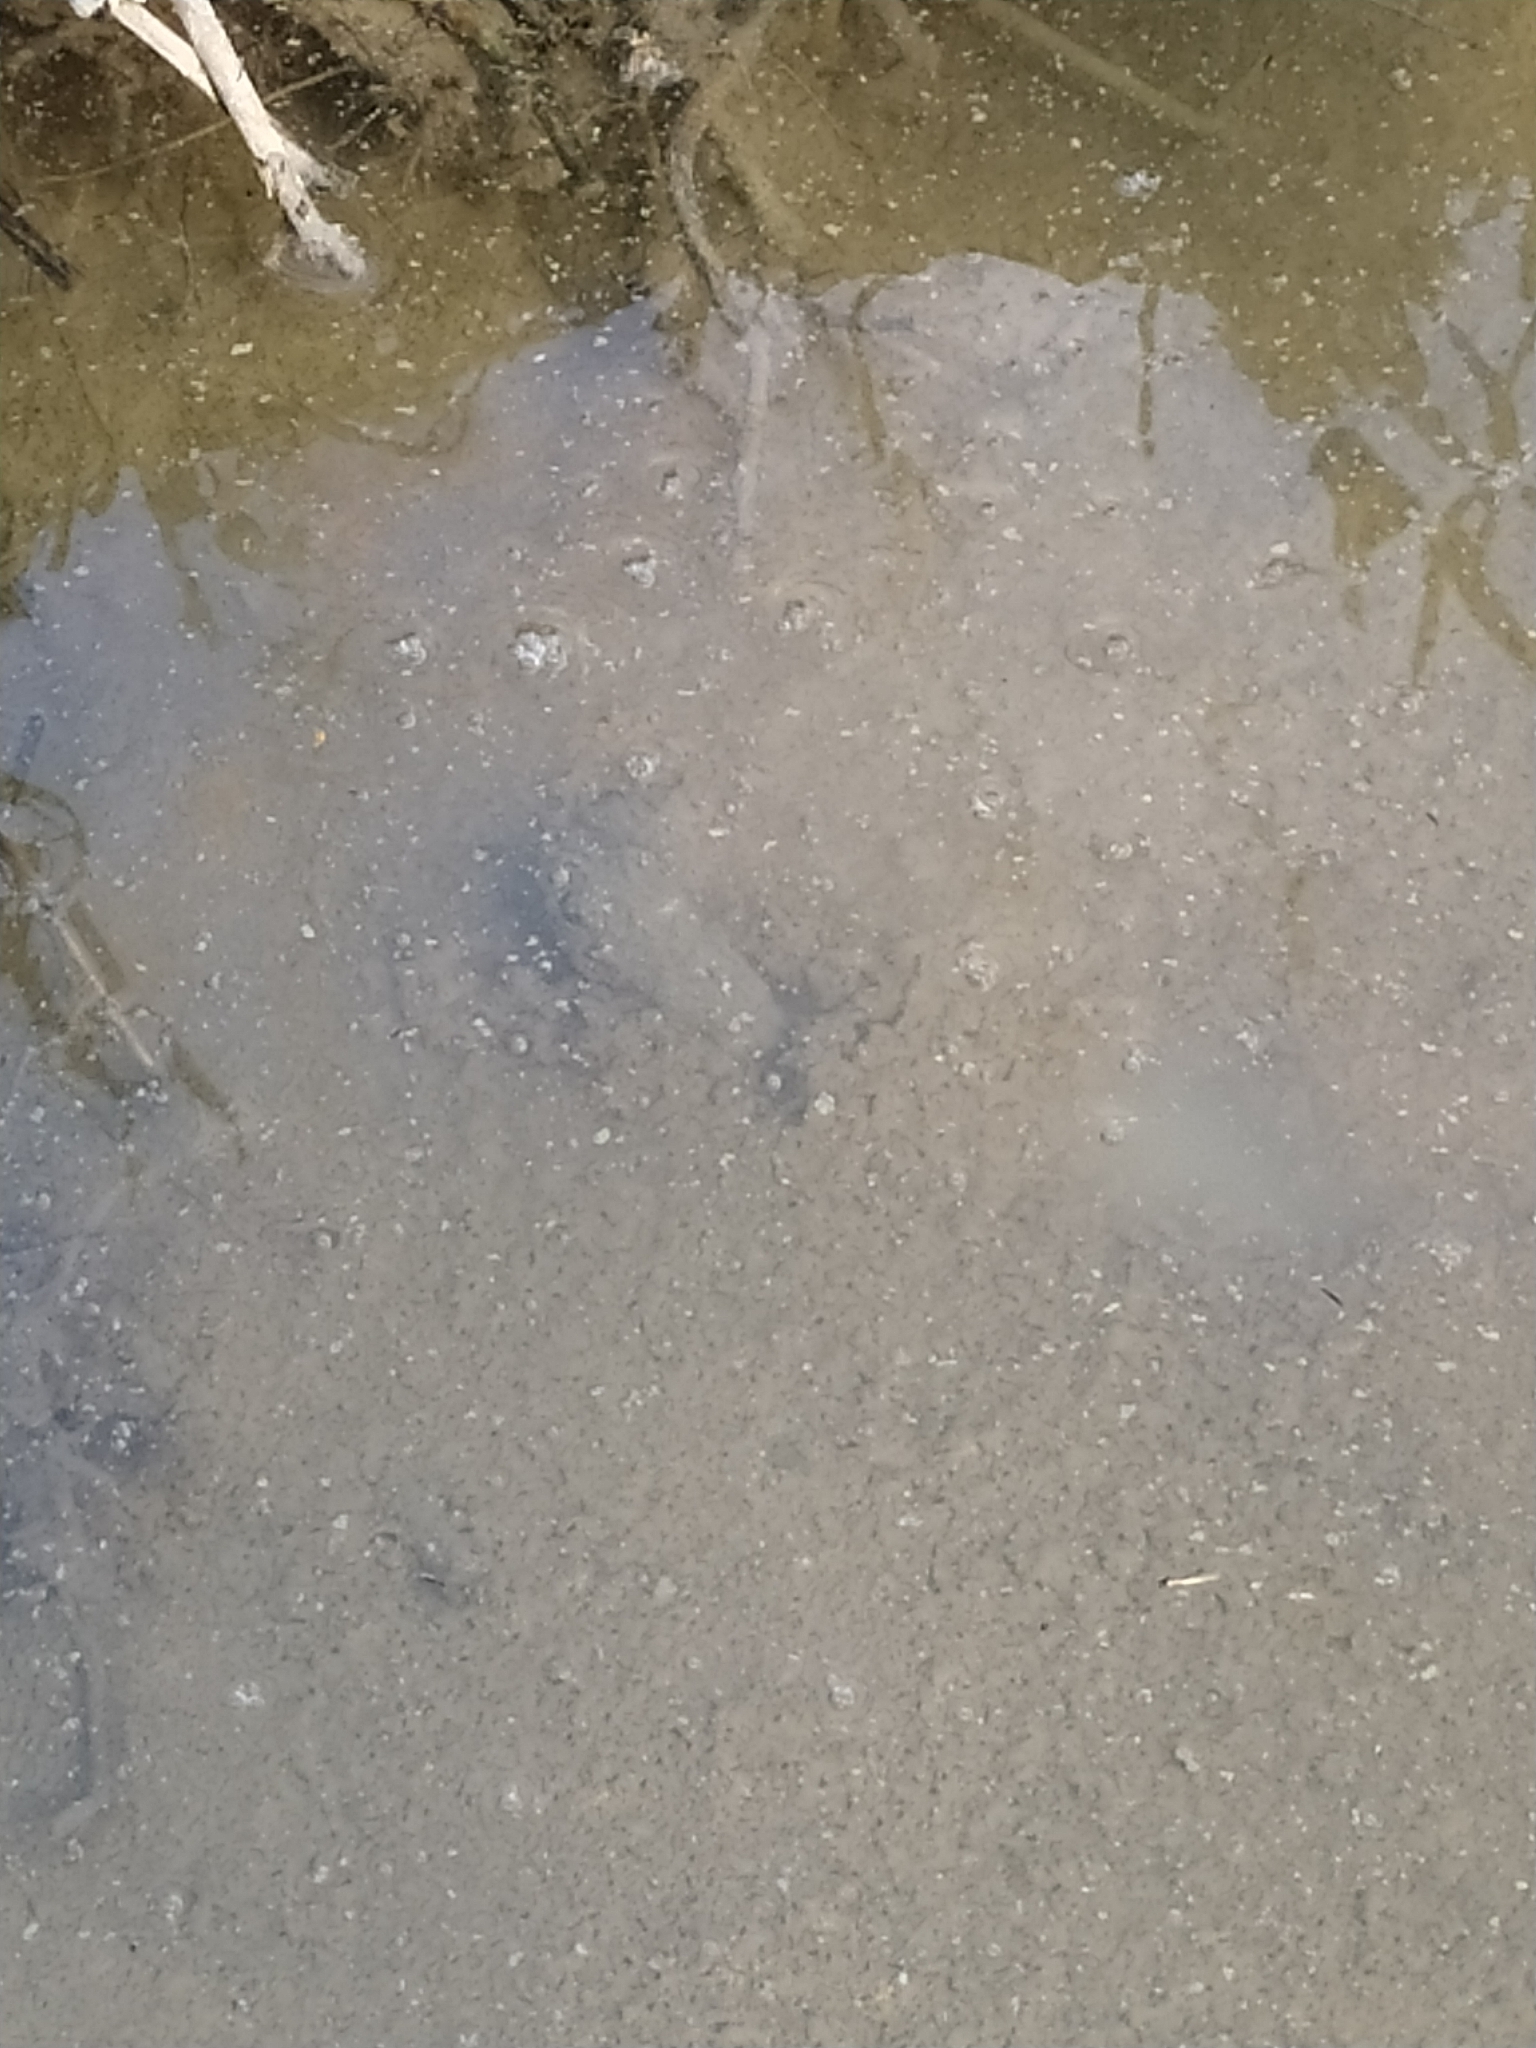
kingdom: Animalia
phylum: Chordata
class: Amphibia
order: Anura
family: Ranidae
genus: Pelophylax
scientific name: Pelophylax
